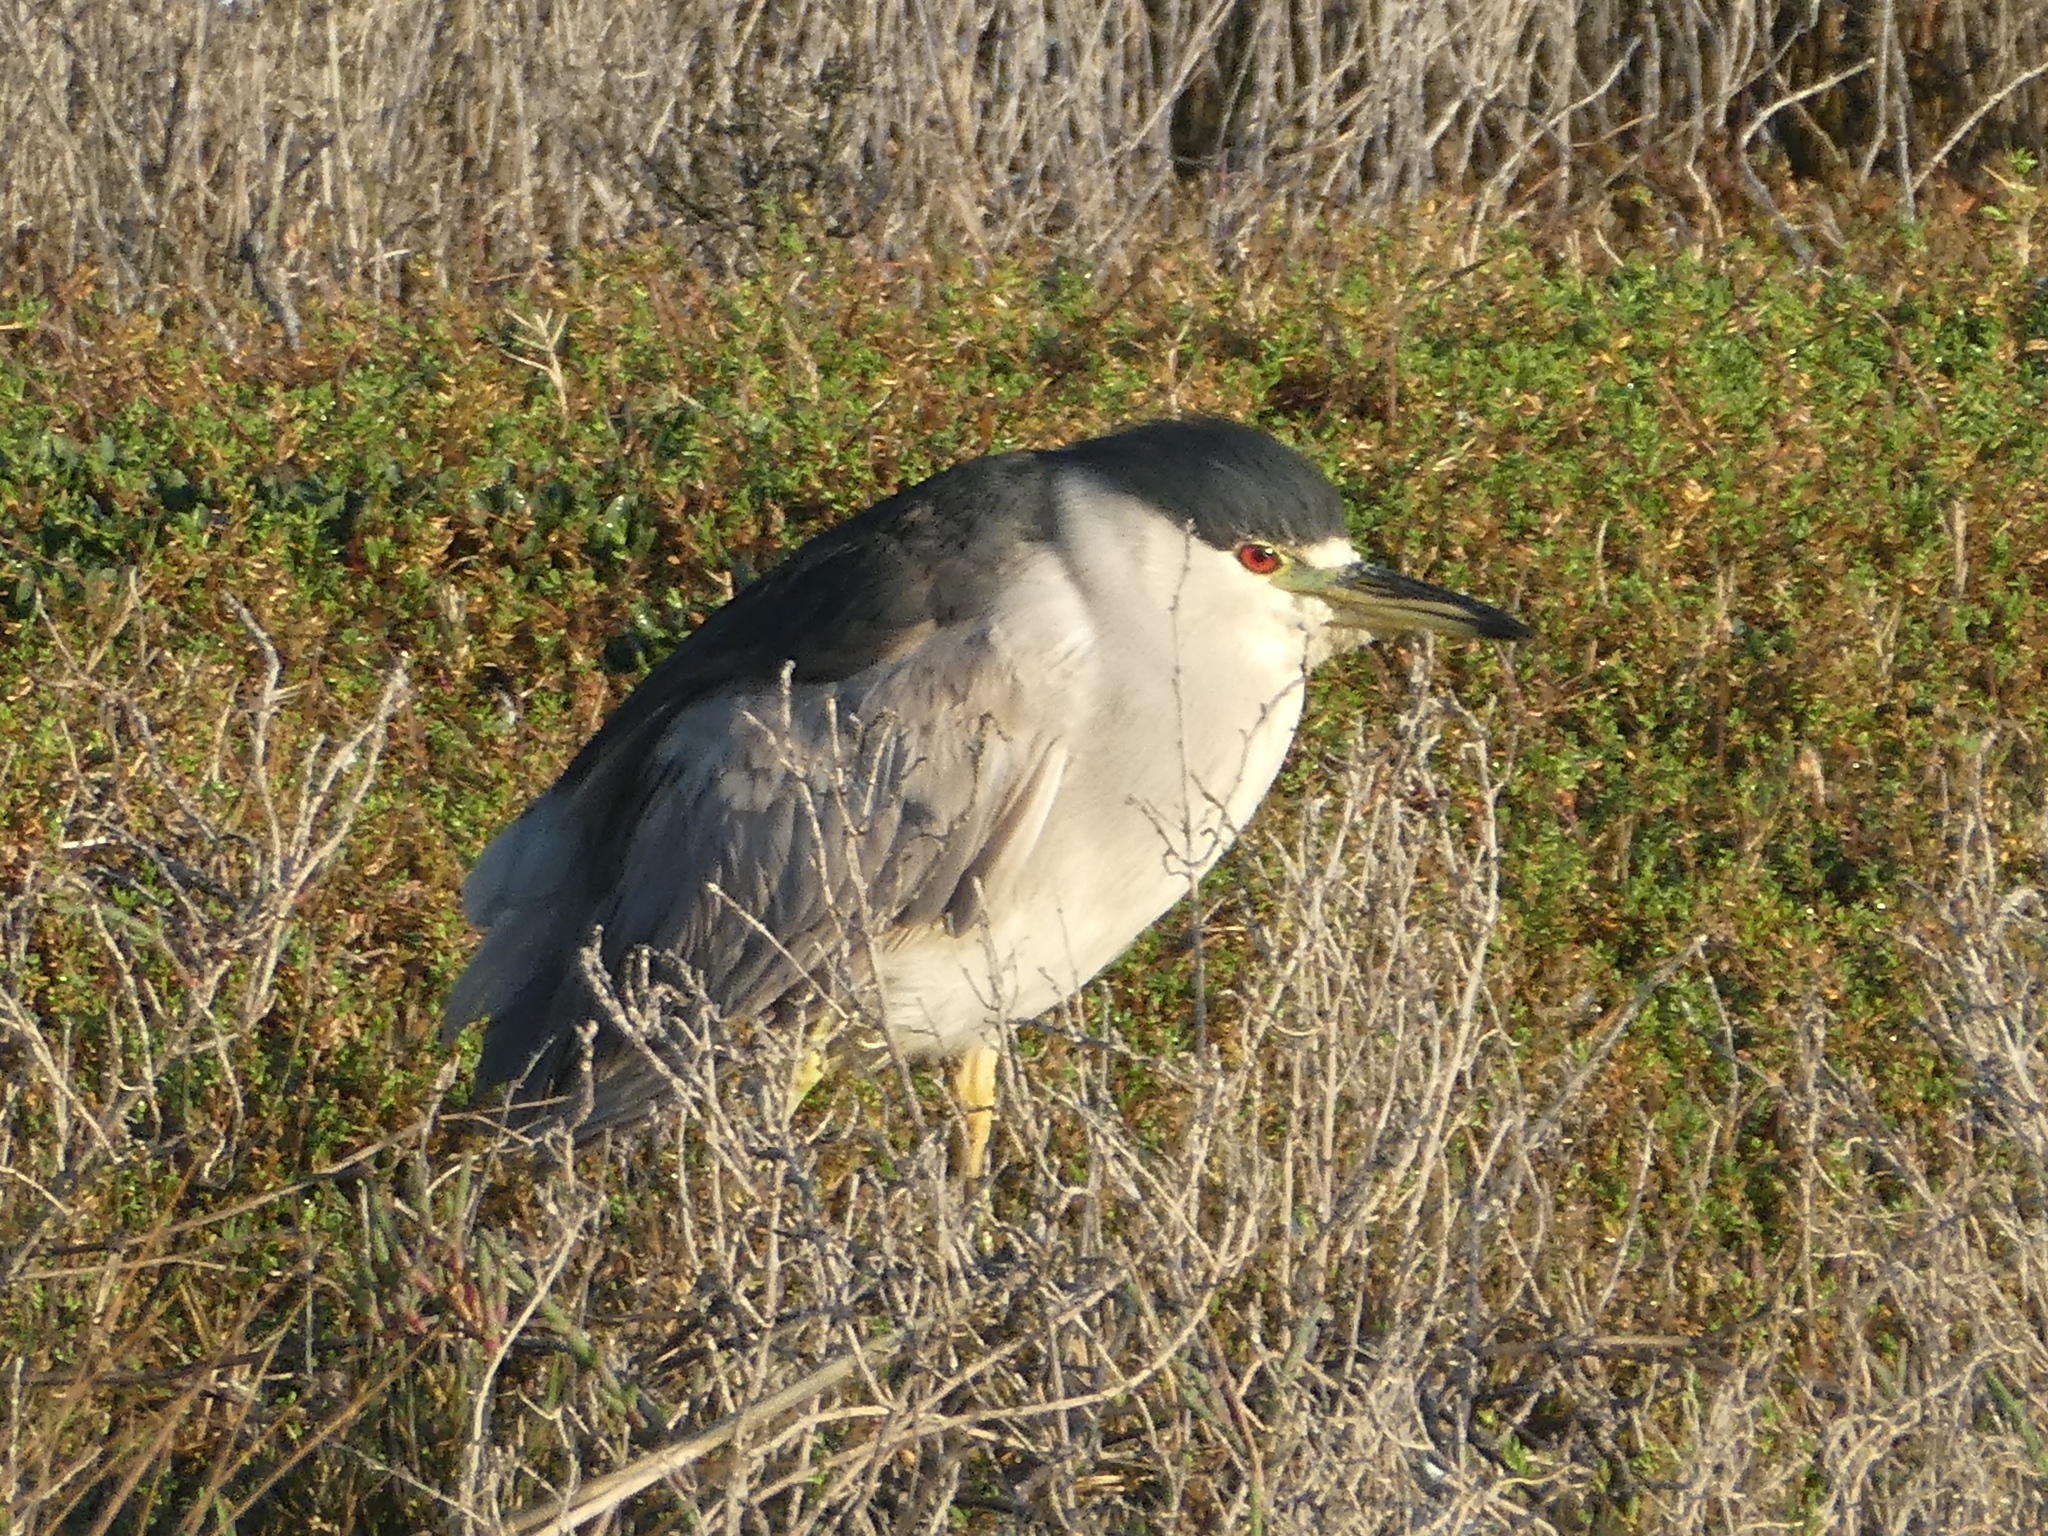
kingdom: Animalia
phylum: Chordata
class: Aves
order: Pelecaniformes
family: Ardeidae
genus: Nycticorax
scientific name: Nycticorax nycticorax
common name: Black-crowned night heron
